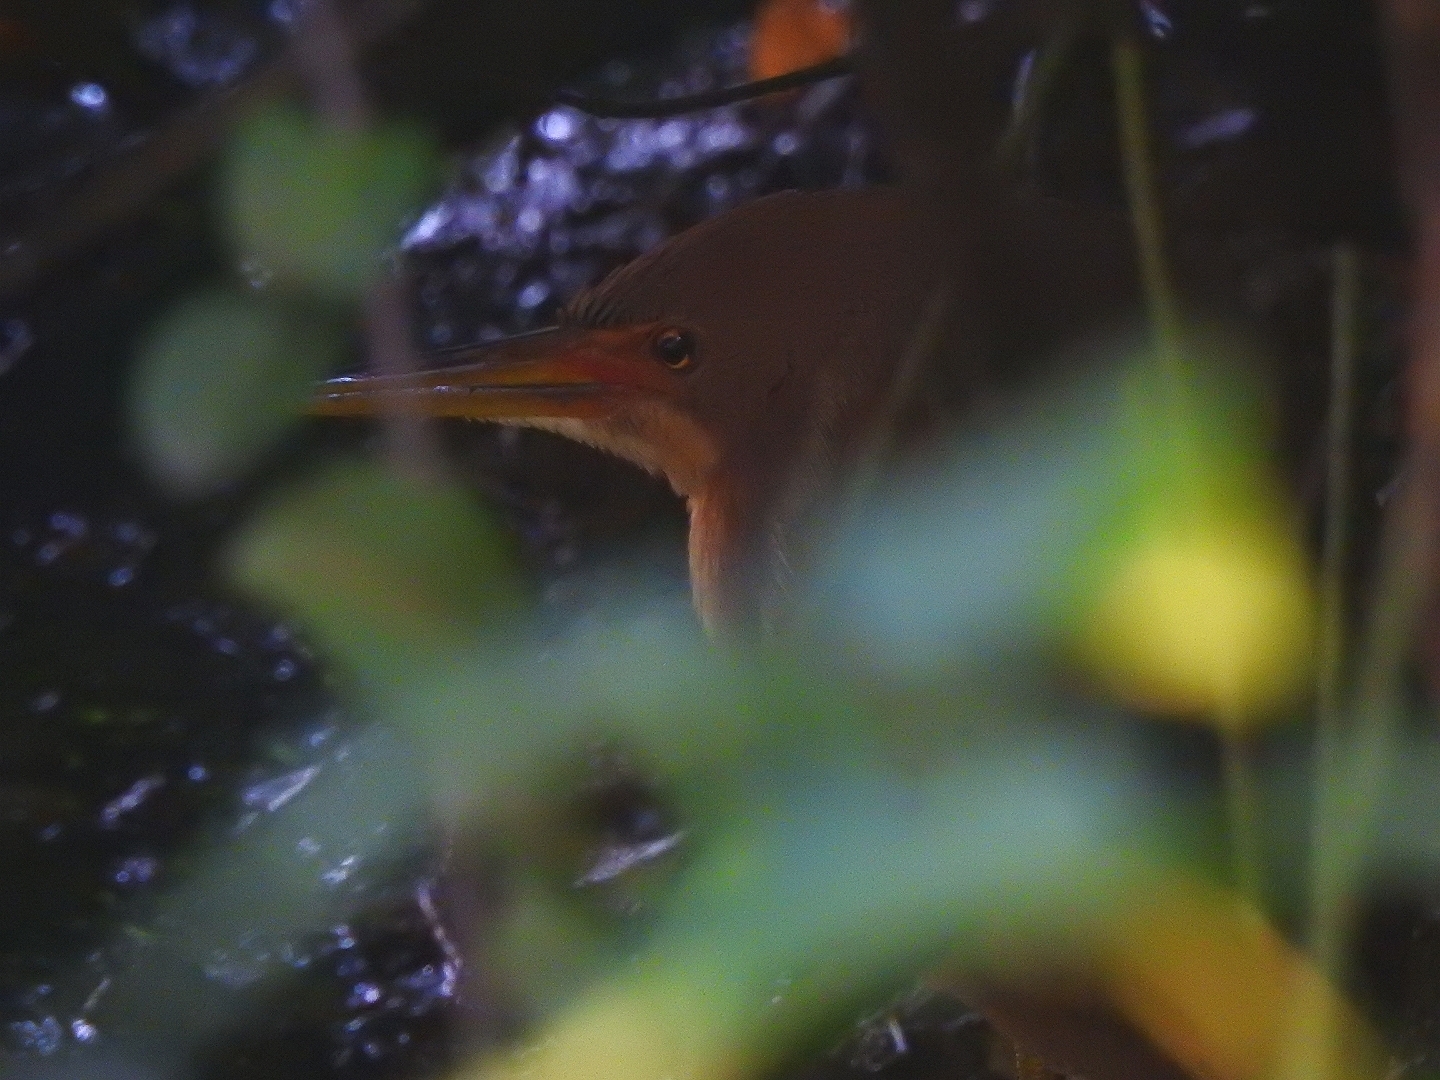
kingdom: Animalia
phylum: Chordata
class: Aves
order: Pelecaniformes
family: Ardeidae
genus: Ixobrychus
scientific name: Ixobrychus cinnamomeus
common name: Cinnamon bittern
